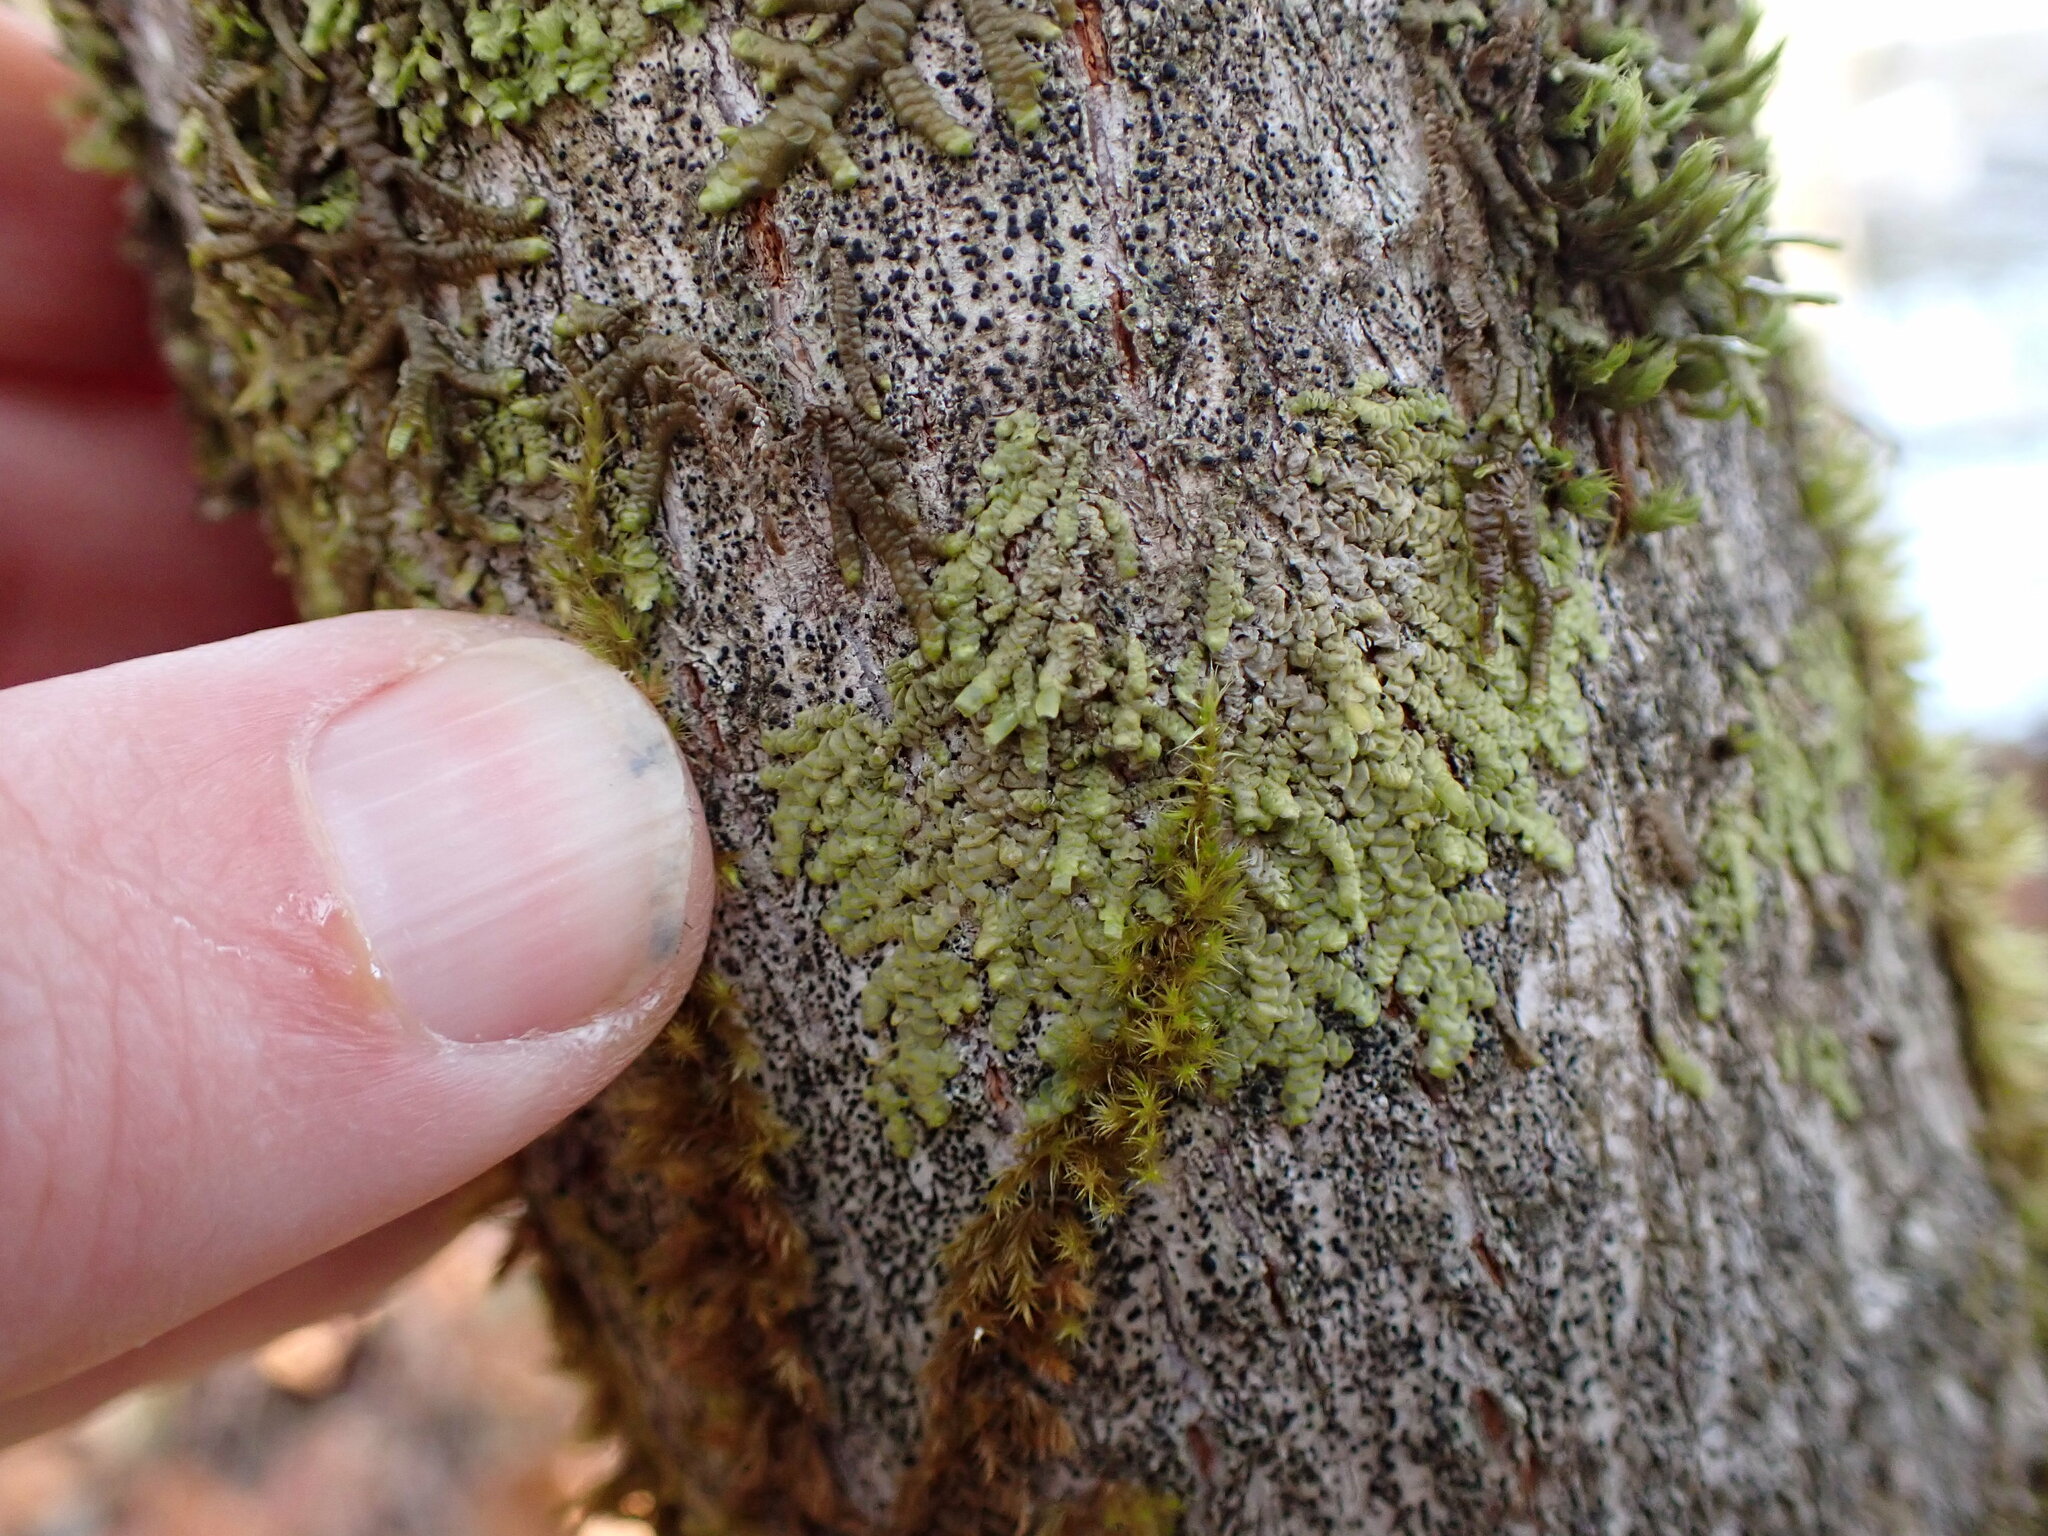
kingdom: Plantae
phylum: Marchantiophyta
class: Jungermanniopsida
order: Porellales
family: Radulaceae
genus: Radula
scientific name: Radula complanata
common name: Flat-leaved scalewort
